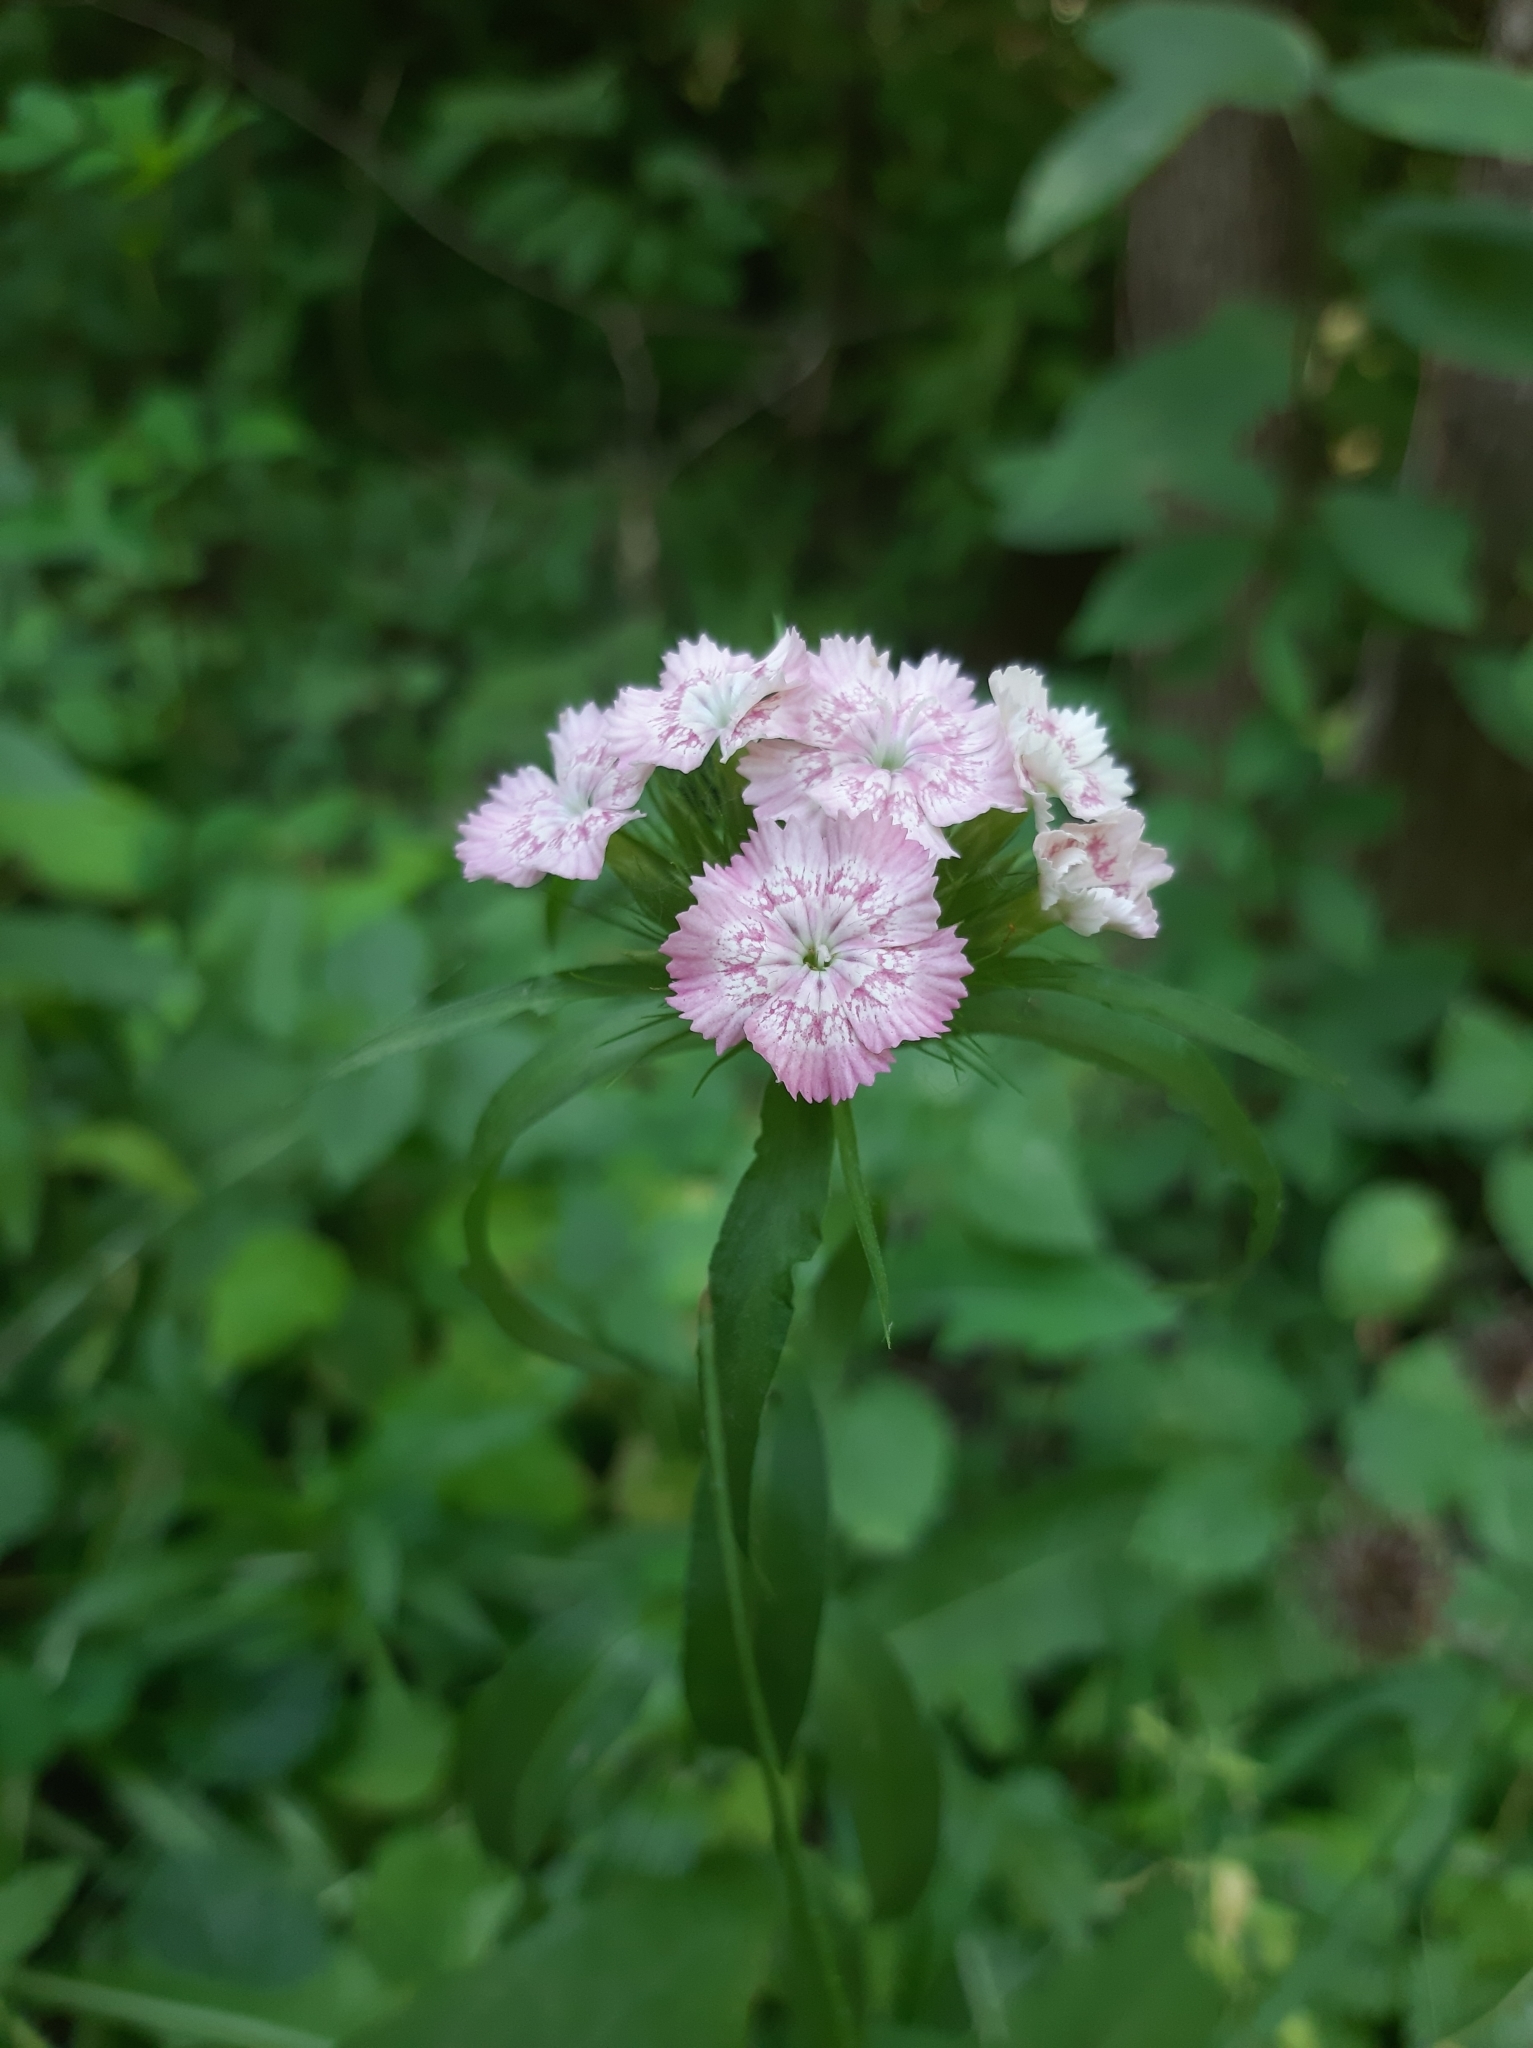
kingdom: Plantae
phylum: Tracheophyta
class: Magnoliopsida
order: Caryophyllales
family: Caryophyllaceae
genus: Dianthus
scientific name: Dianthus barbatus
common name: Sweet-william
